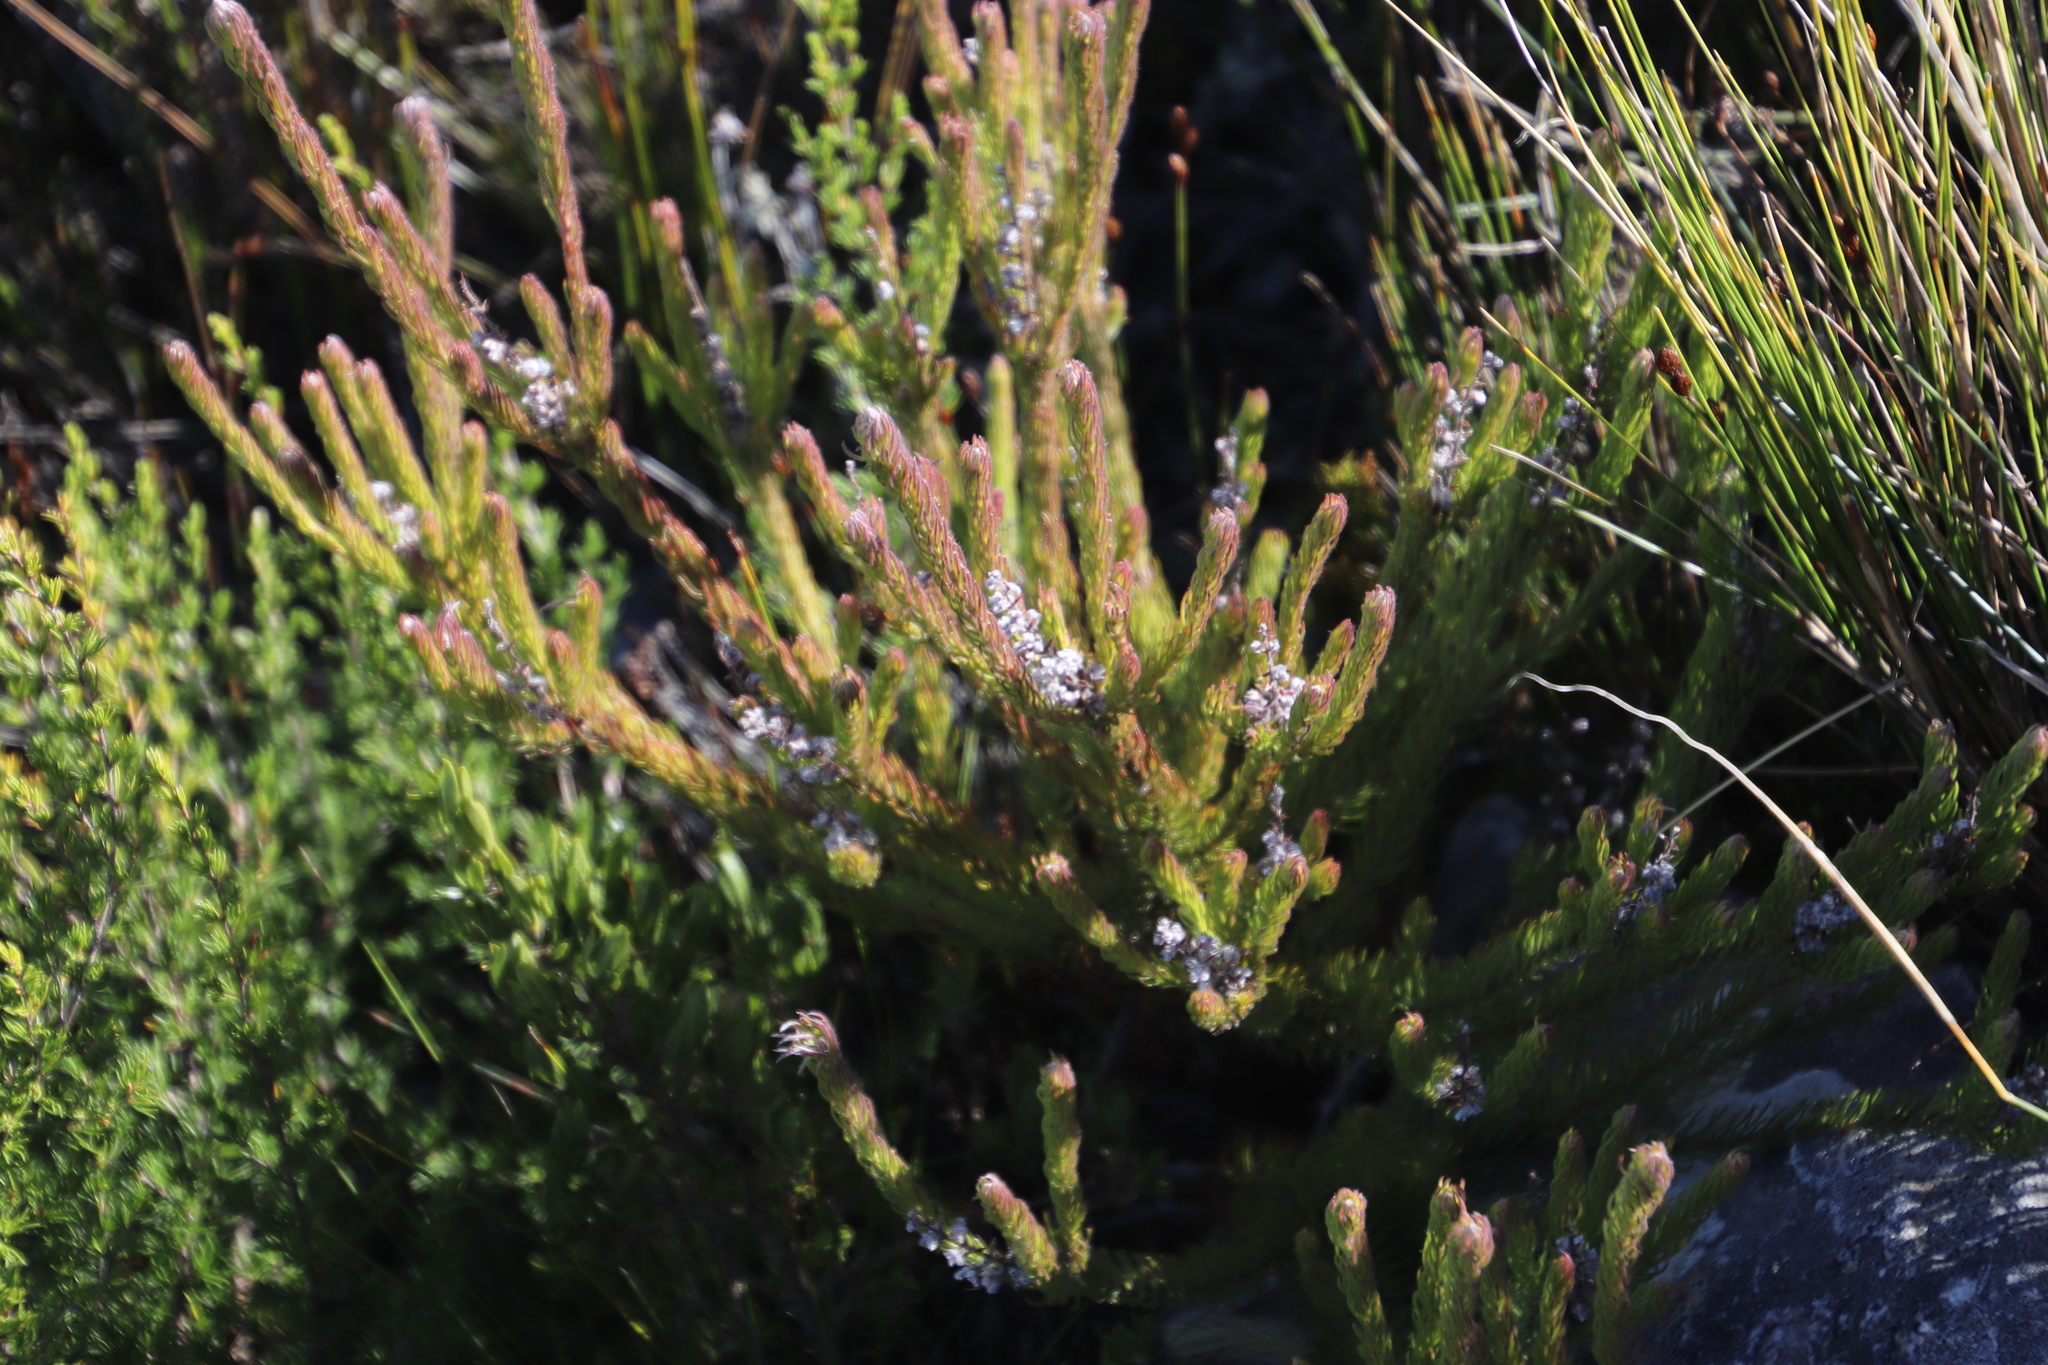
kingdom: Plantae
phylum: Tracheophyta
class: Magnoliopsida
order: Proteales
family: Proteaceae
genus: Spatalla
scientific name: Spatalla propinqua
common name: Lax spoon
